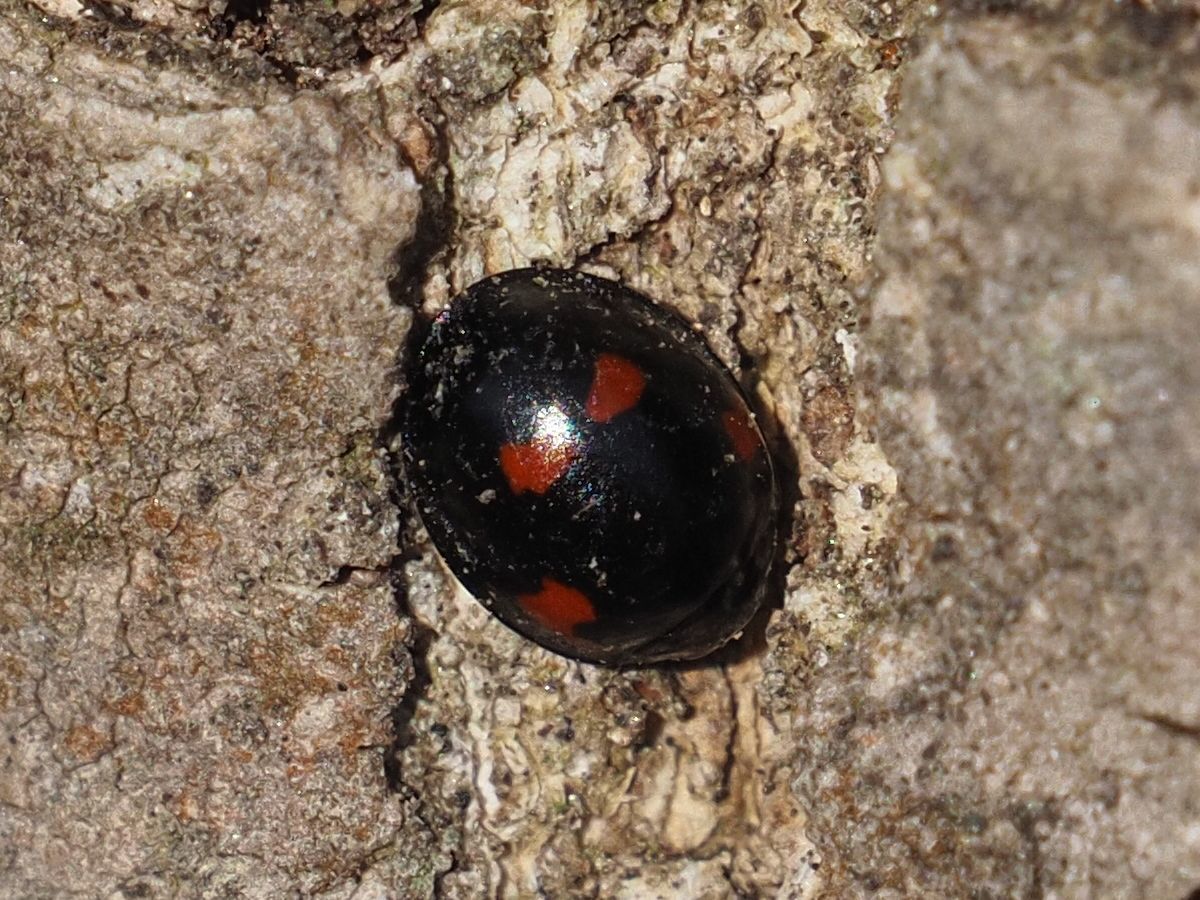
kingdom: Animalia
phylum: Arthropoda
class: Insecta
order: Coleoptera
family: Coccinellidae
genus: Brumus
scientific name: Brumus quadripustulatus
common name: Ladybird beetle
